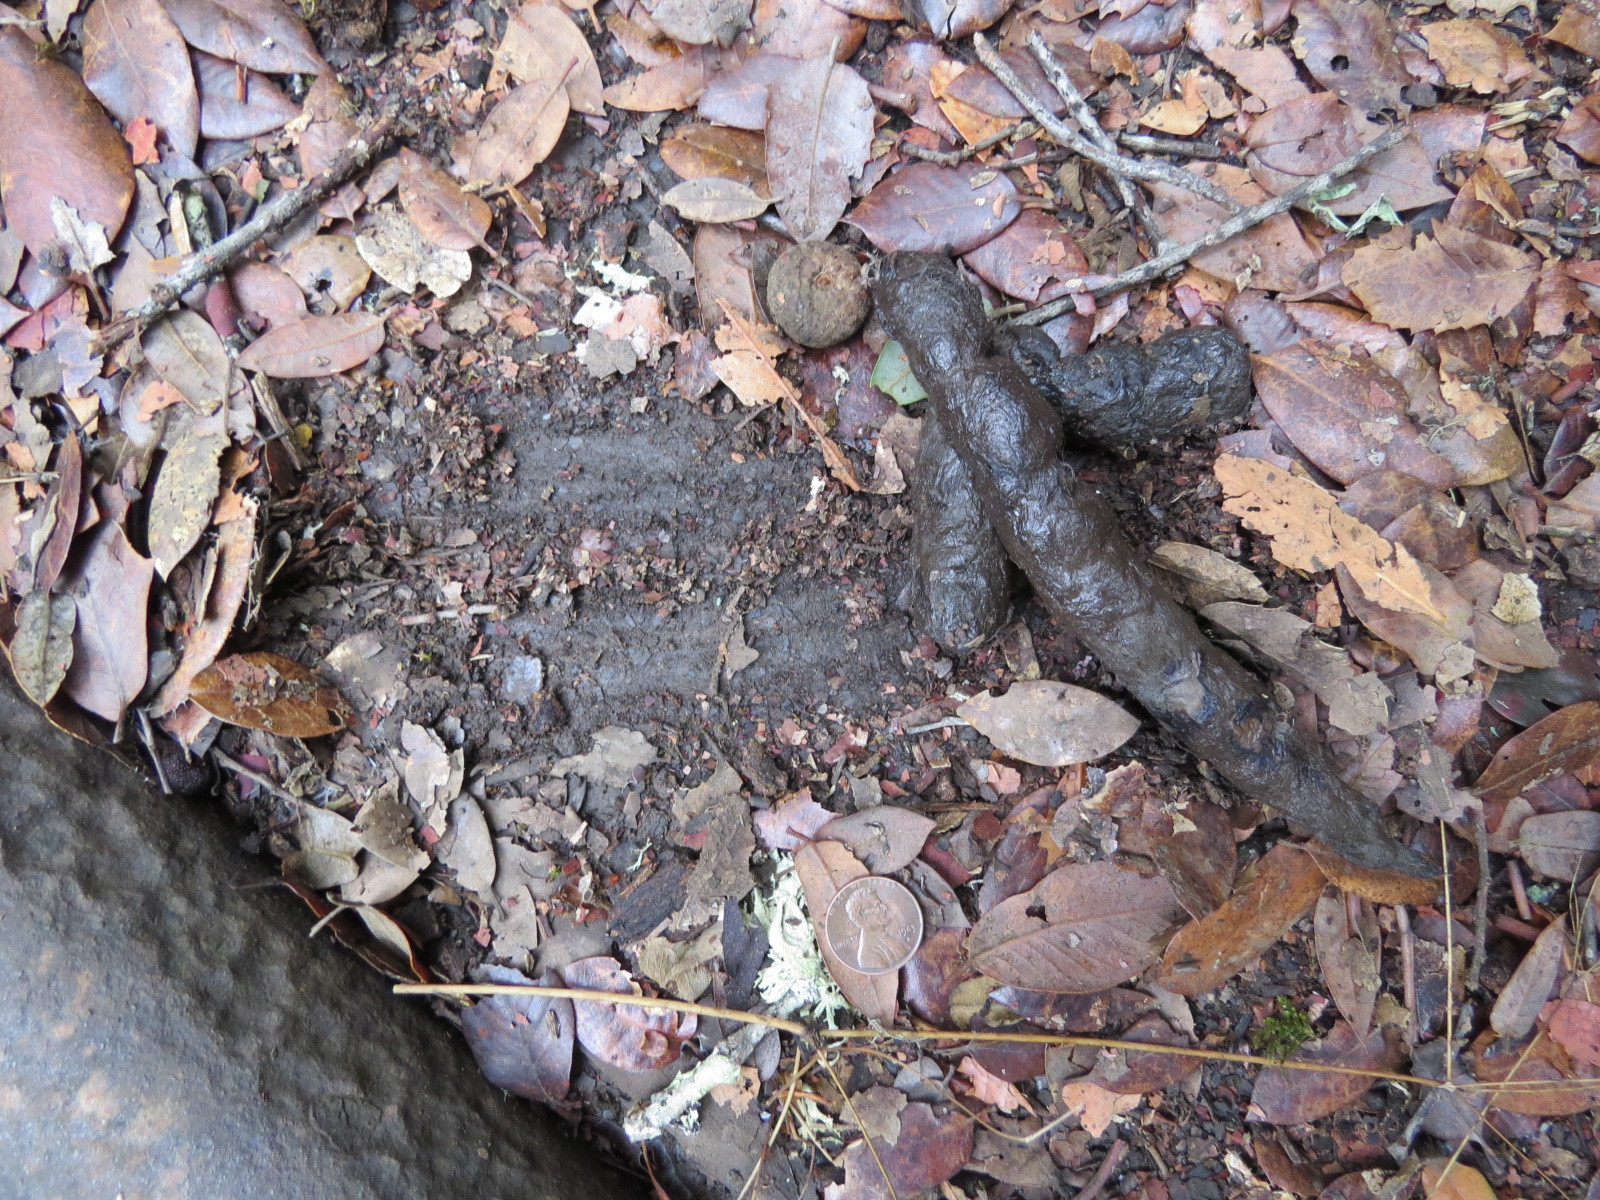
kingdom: Animalia
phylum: Chordata
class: Mammalia
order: Carnivora
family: Felidae
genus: Lynx
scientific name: Lynx rufus
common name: Bobcat
